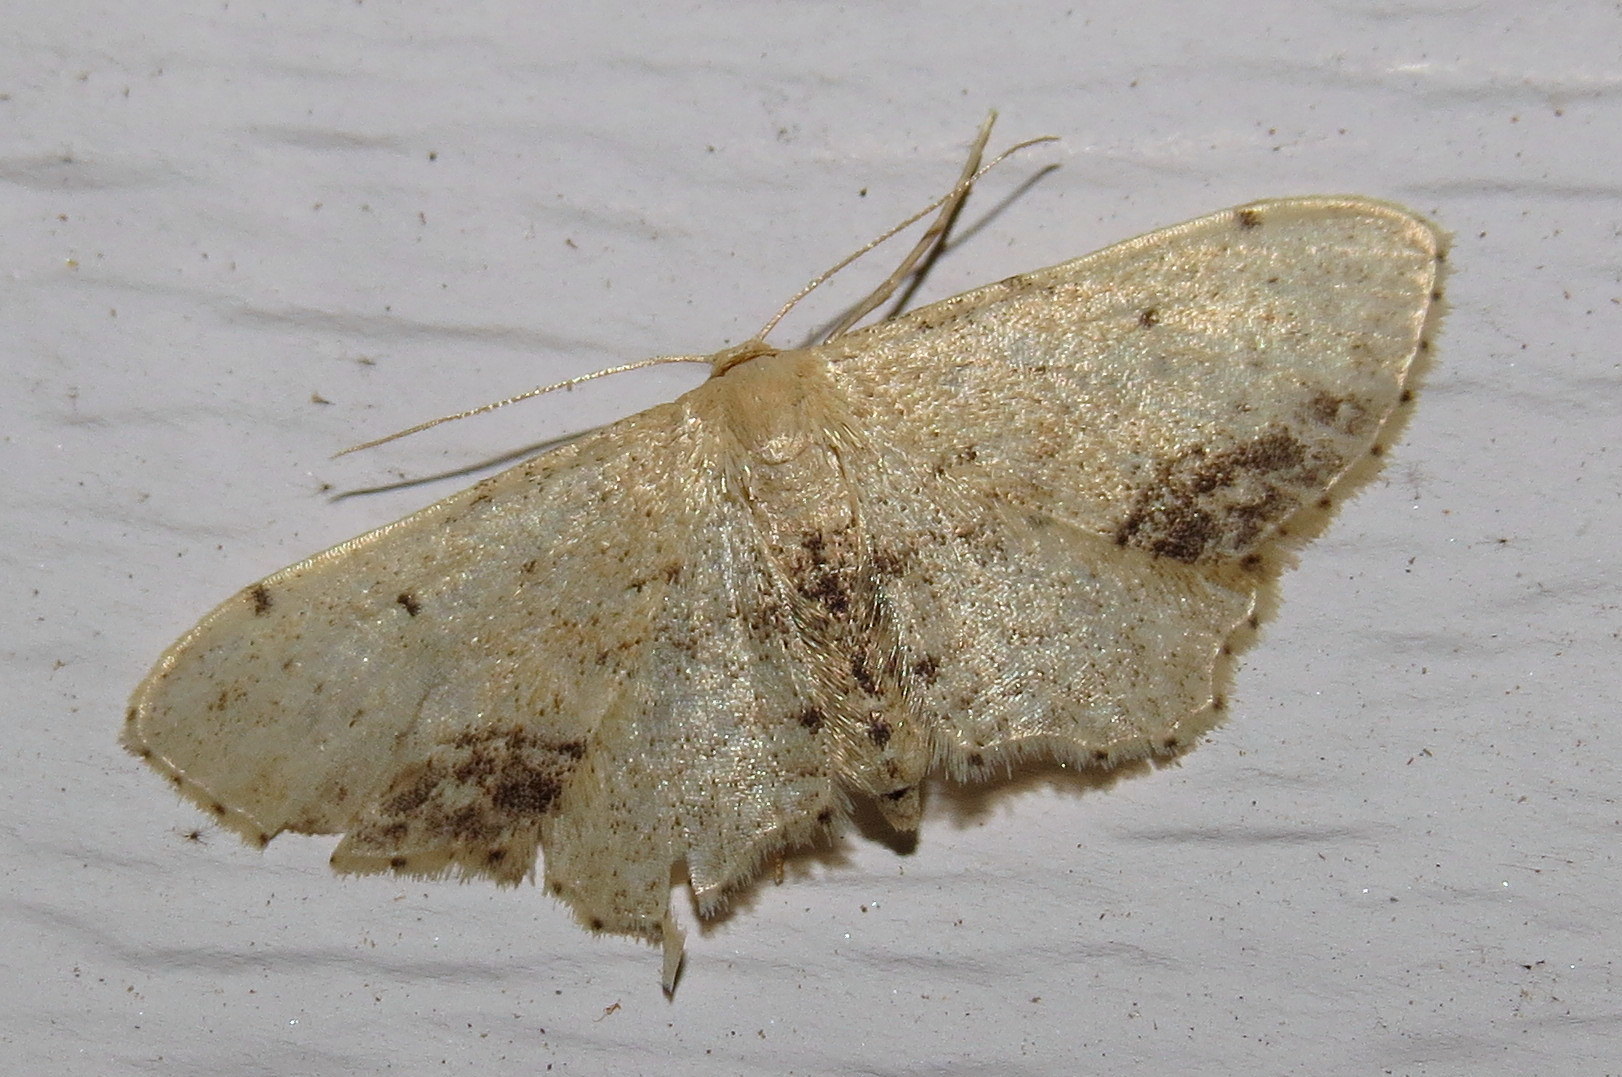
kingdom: Animalia
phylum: Arthropoda
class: Insecta
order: Lepidoptera
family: Geometridae
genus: Idaea
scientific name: Idaea dimidiata
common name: Single-dotted wave
